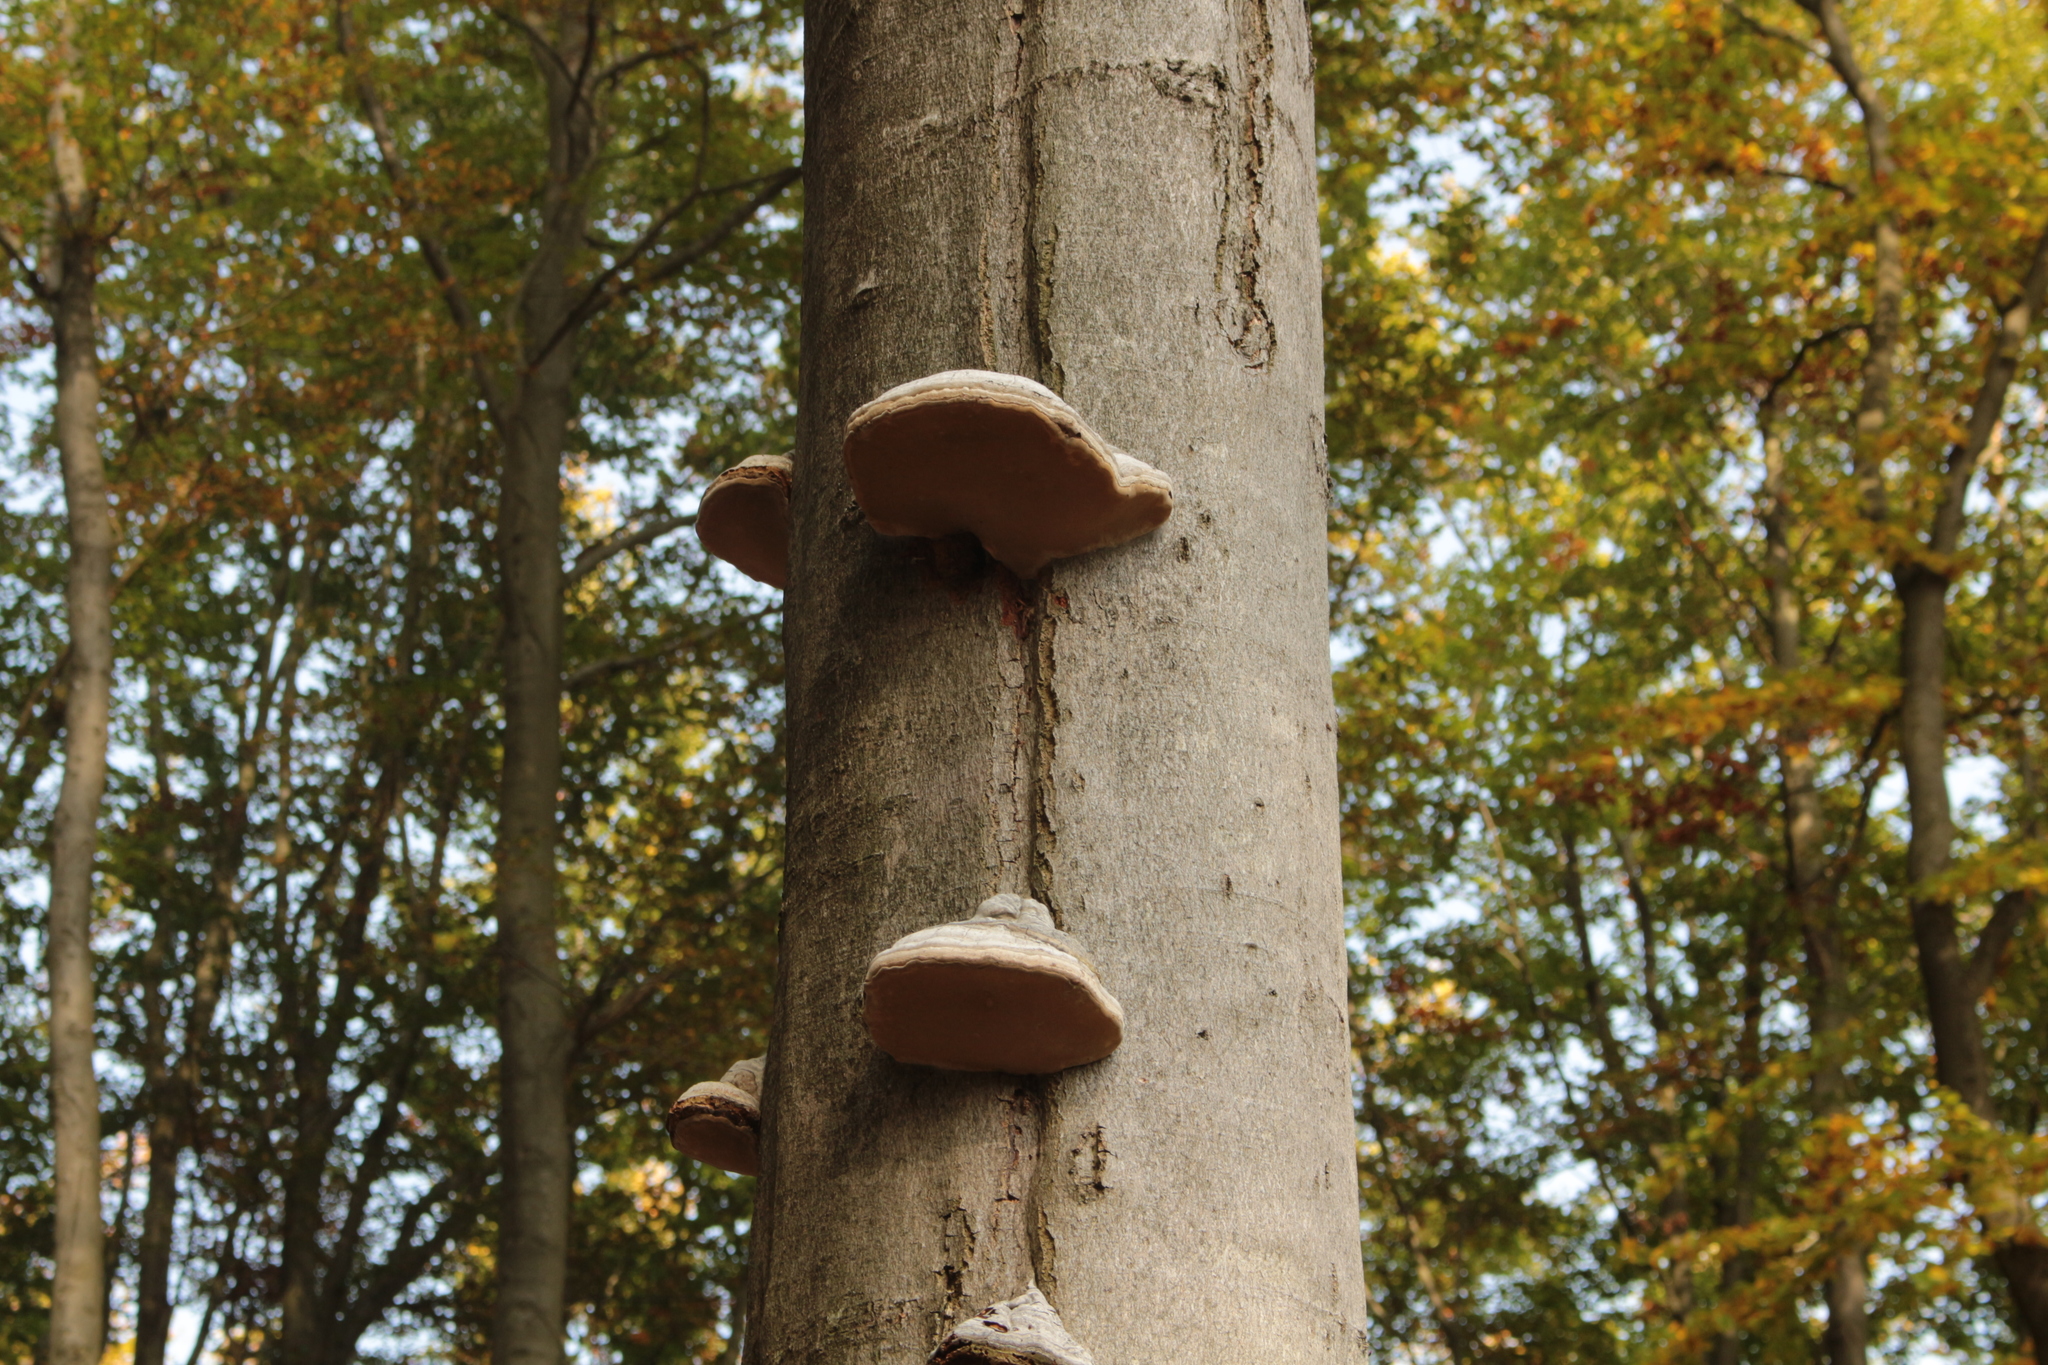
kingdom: Fungi
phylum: Basidiomycota
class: Agaricomycetes
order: Polyporales
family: Polyporaceae
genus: Fomes
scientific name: Fomes fomentarius
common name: Hoof fungus
